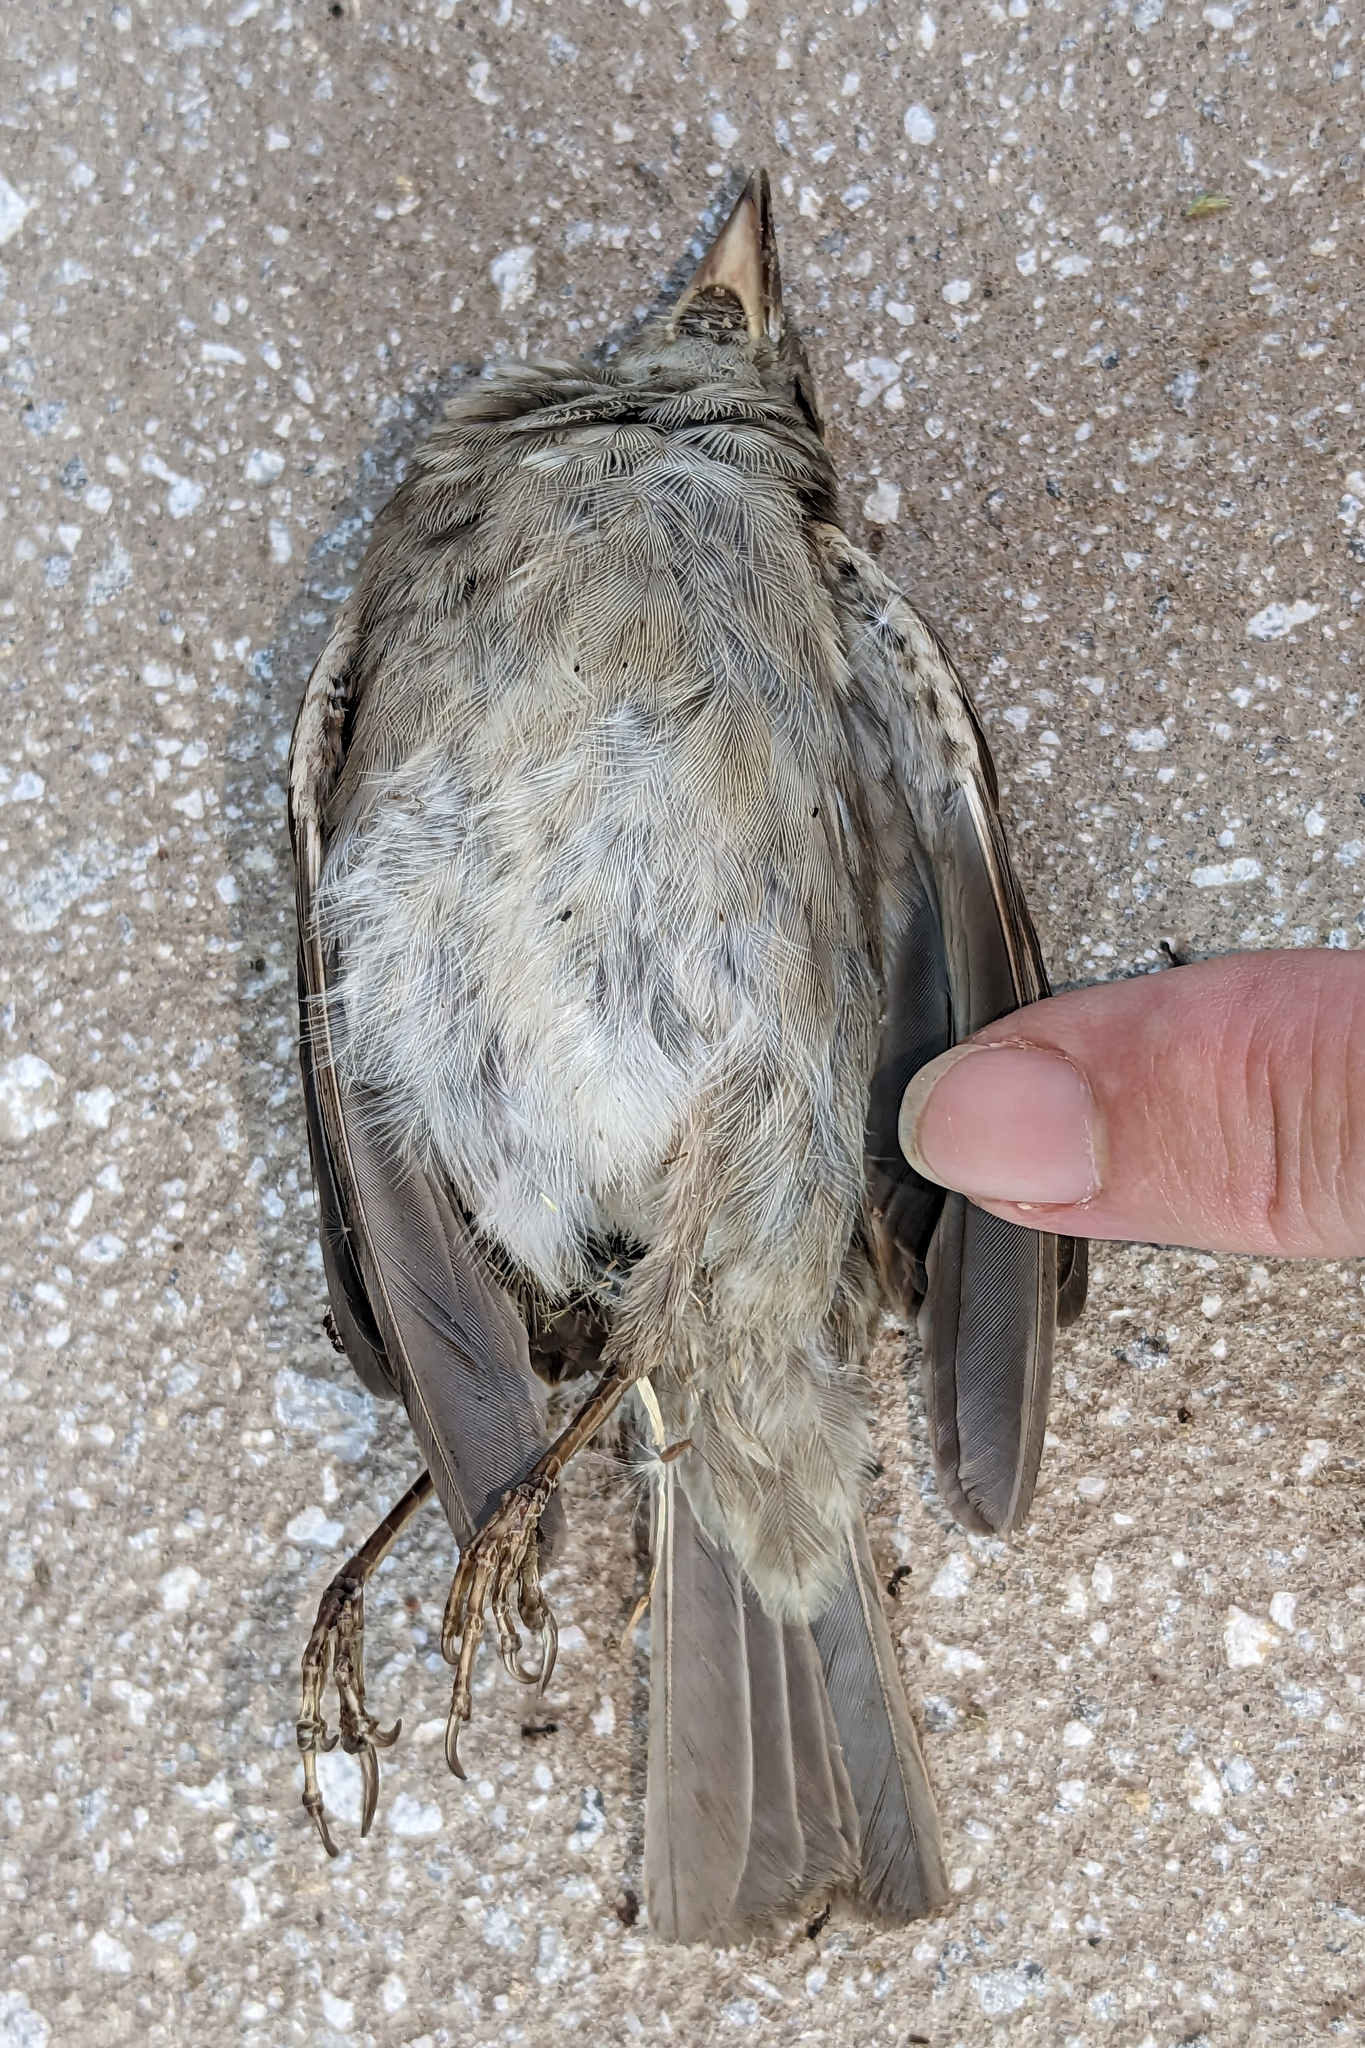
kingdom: Animalia
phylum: Chordata
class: Aves
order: Passeriformes
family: Passeridae
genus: Passer
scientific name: Passer domesticus
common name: House sparrow
